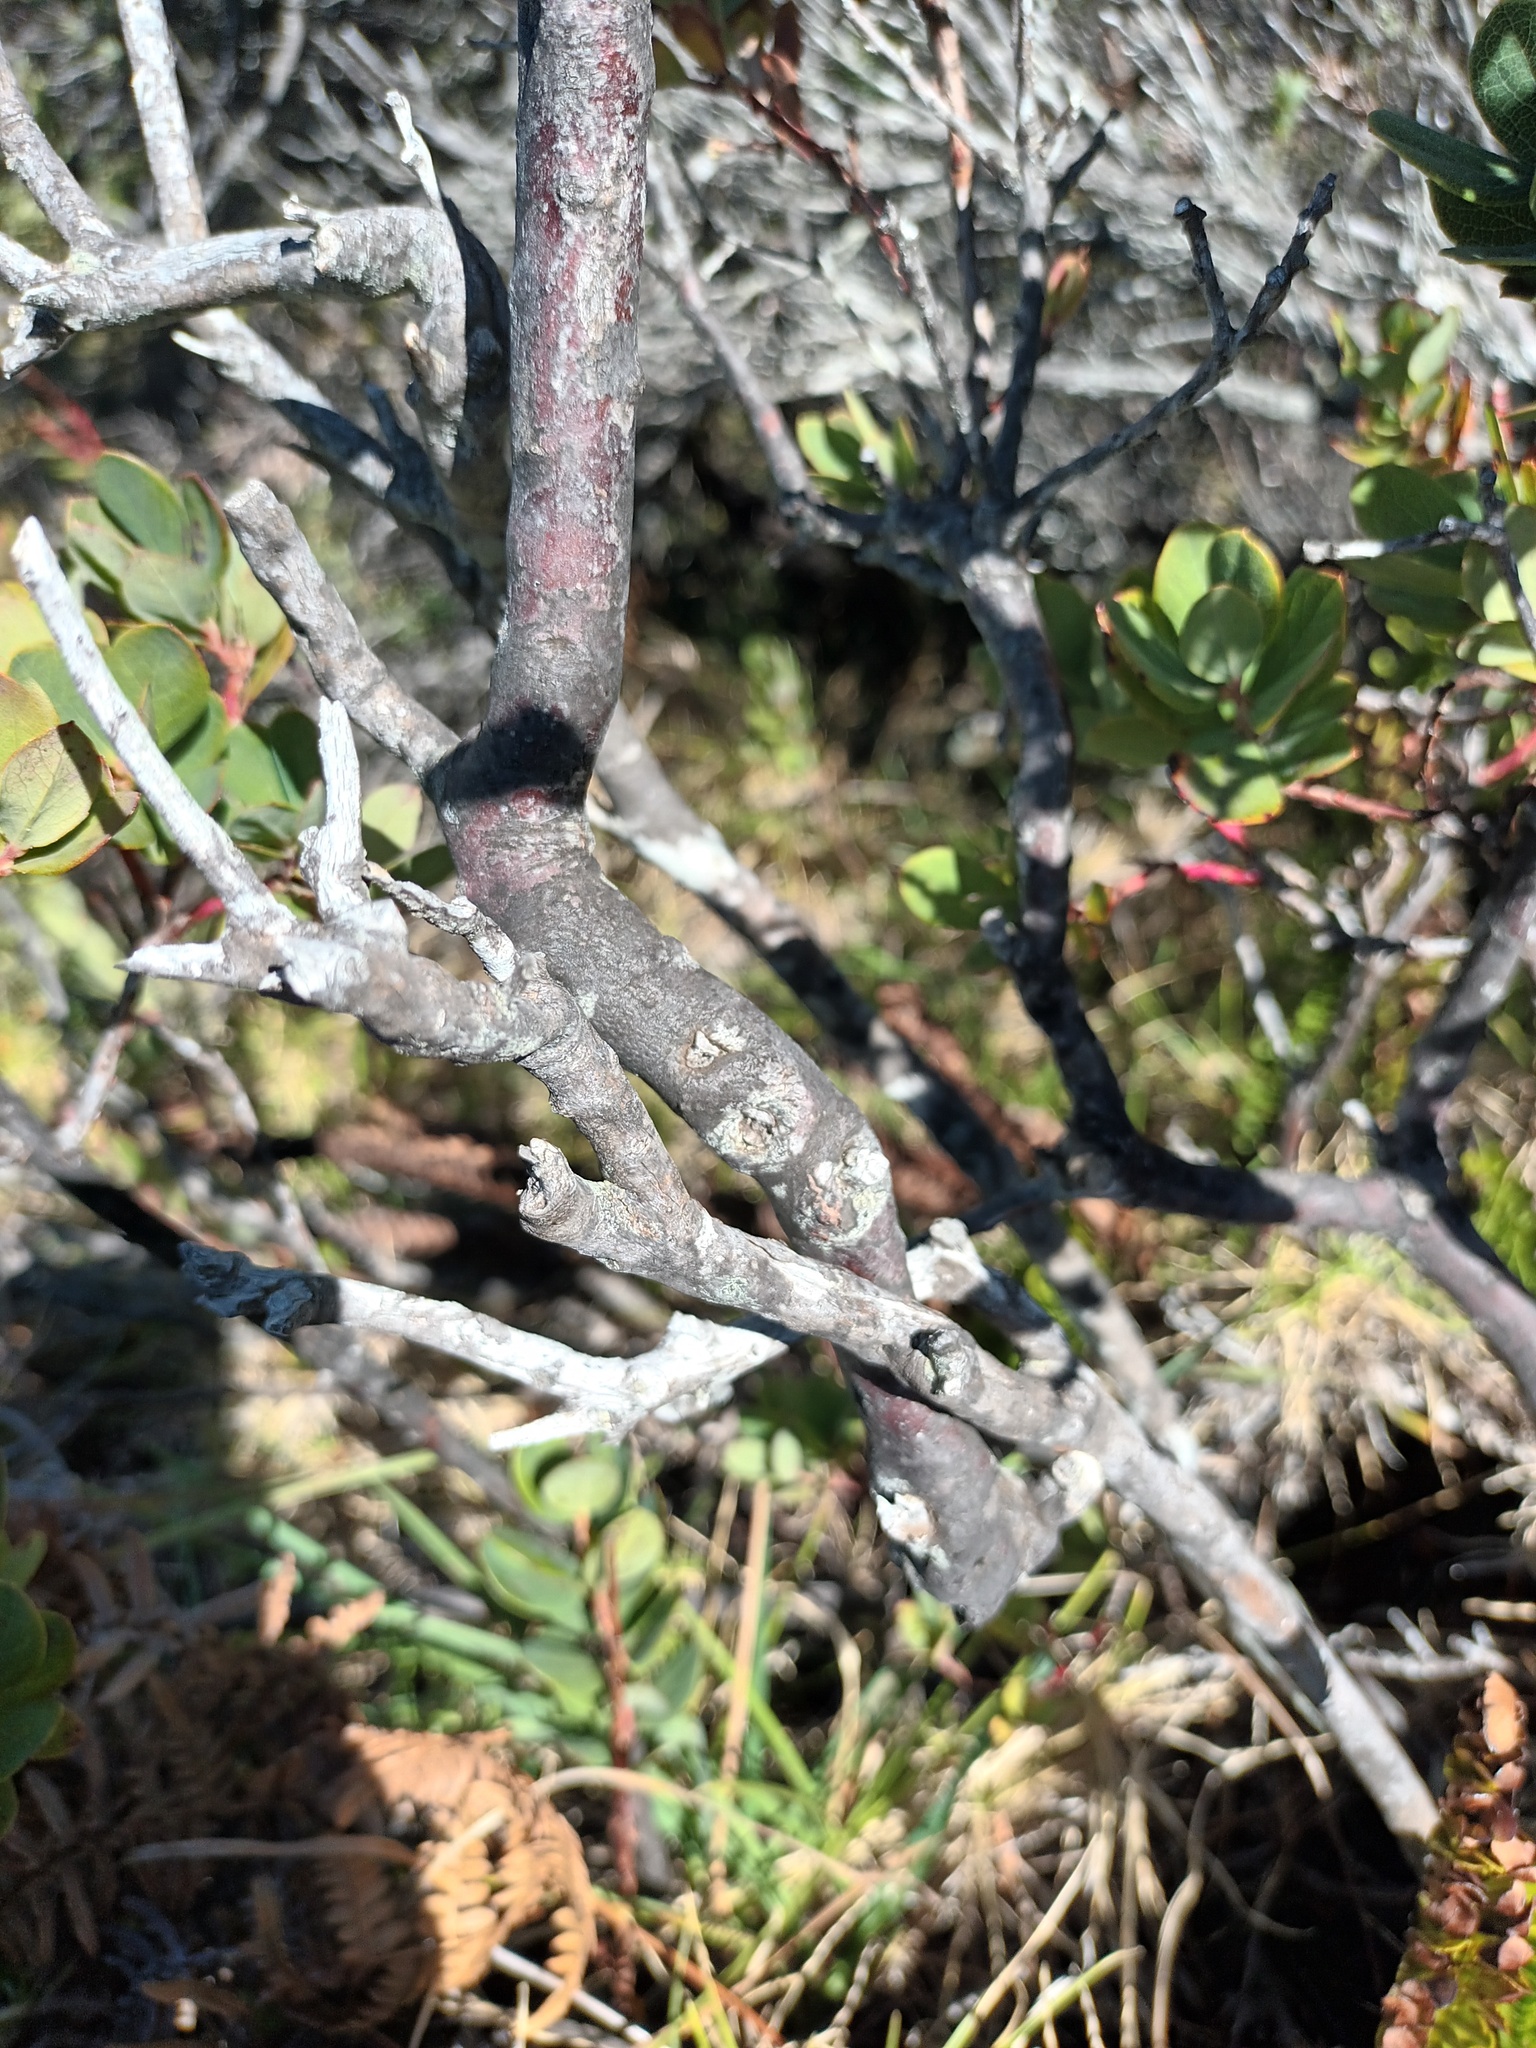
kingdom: Plantae
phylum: Tracheophyta
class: Magnoliopsida
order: Ericales
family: Ericaceae
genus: Vaccinium
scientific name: Vaccinium reticulatum
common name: Ohelo
